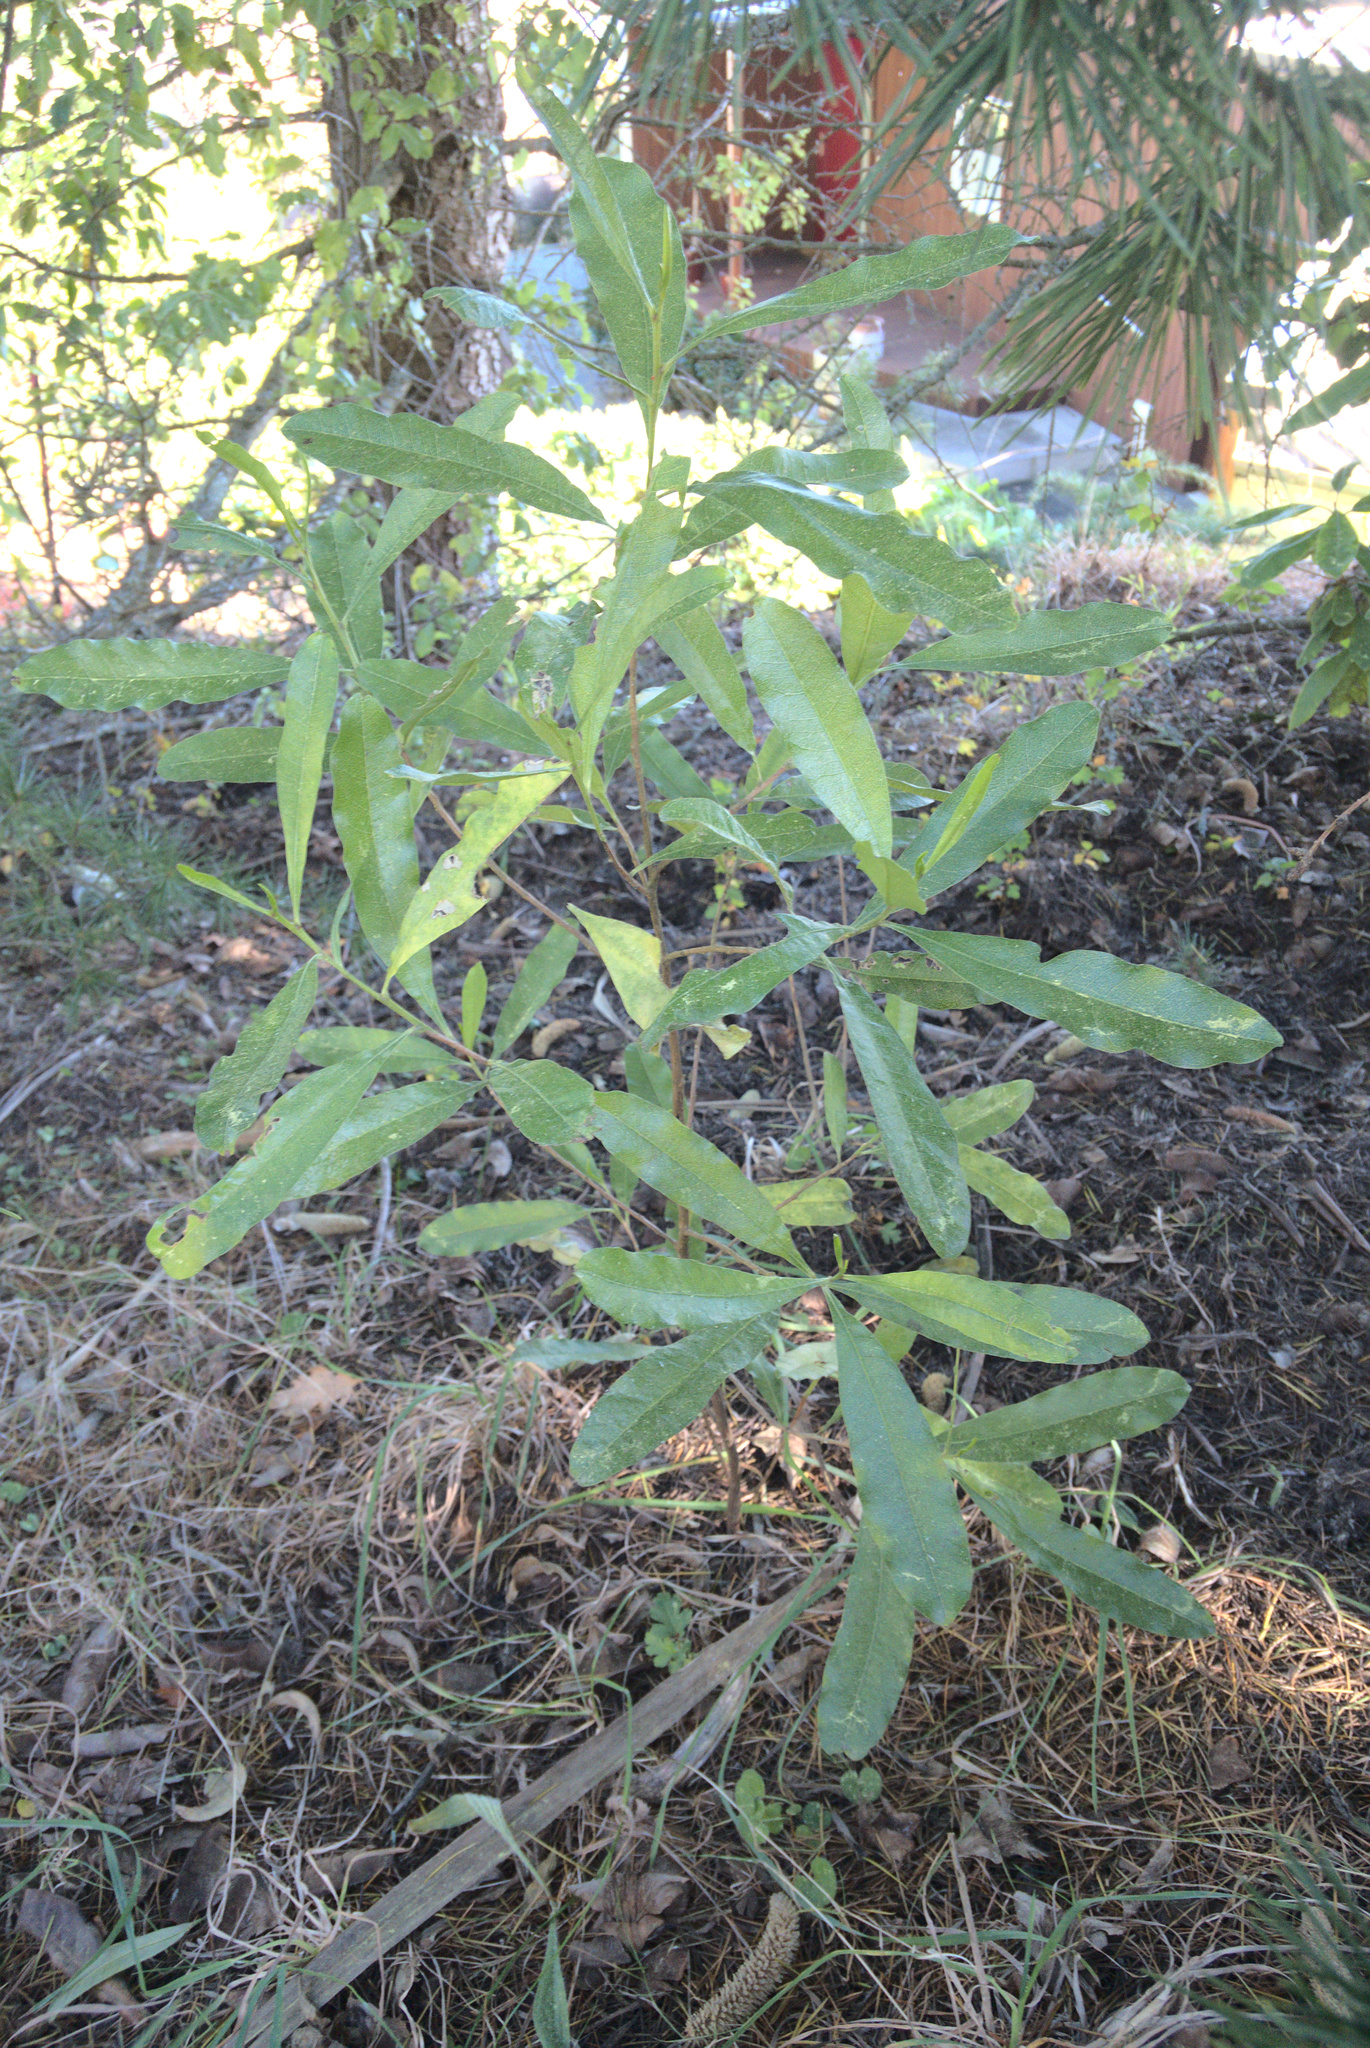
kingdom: Plantae
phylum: Tracheophyta
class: Magnoliopsida
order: Apiales
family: Araliaceae
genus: Pseudopanax
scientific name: Pseudopanax
